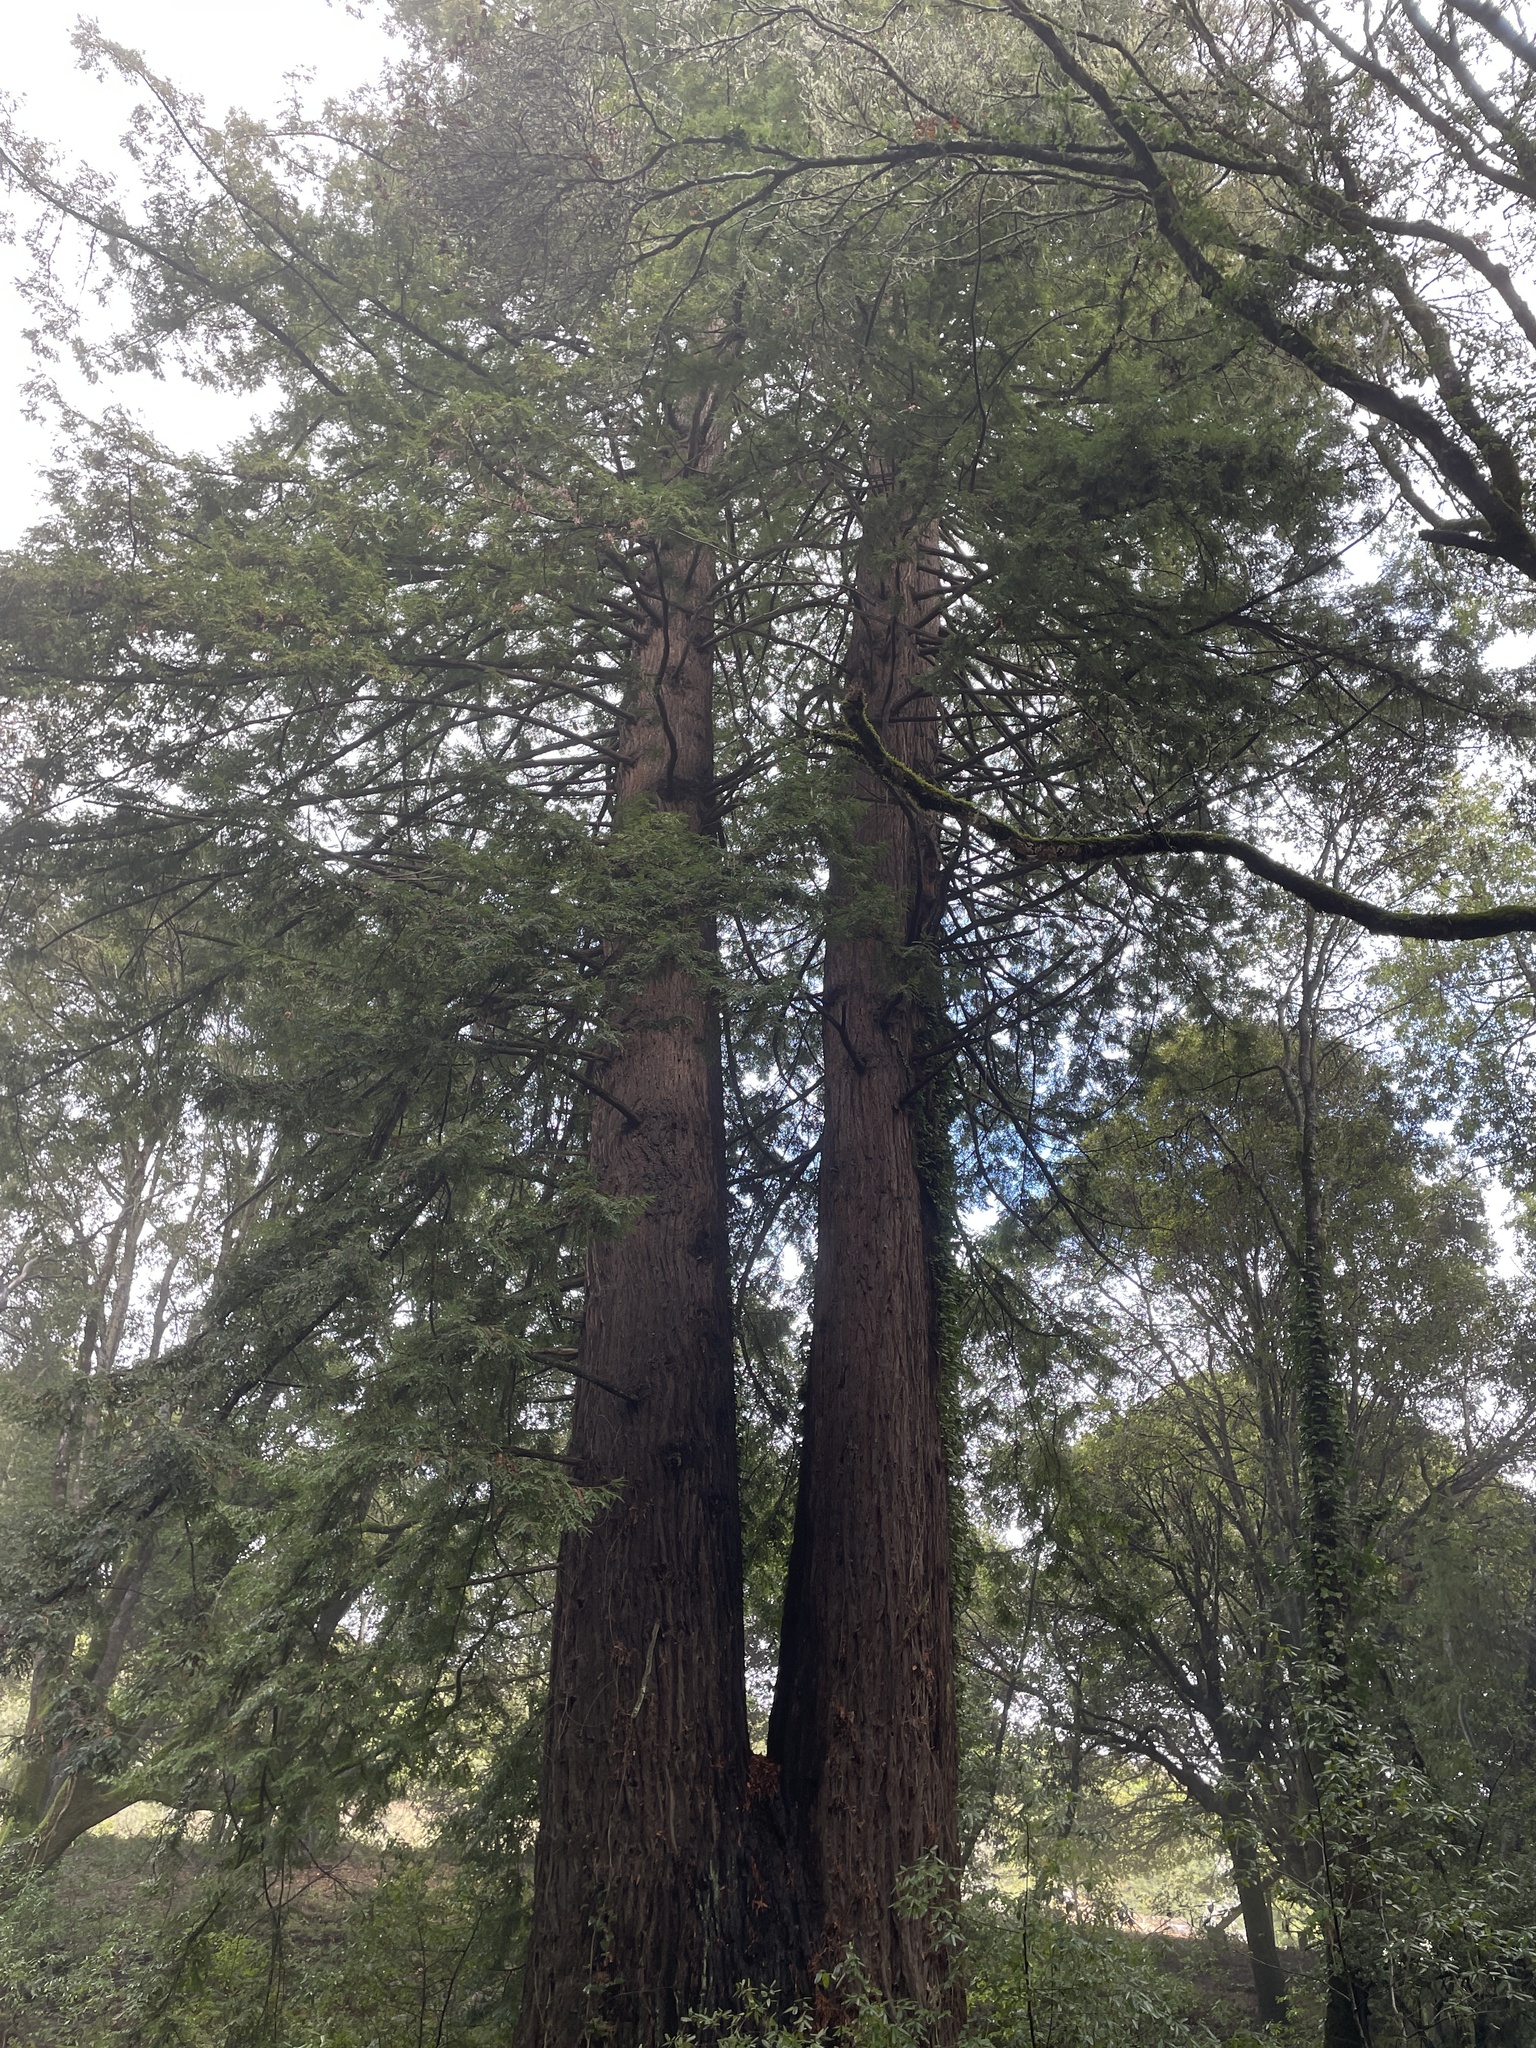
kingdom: Plantae
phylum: Tracheophyta
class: Pinopsida
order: Pinales
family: Cupressaceae
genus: Sequoia
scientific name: Sequoia sempervirens
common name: Coast redwood
